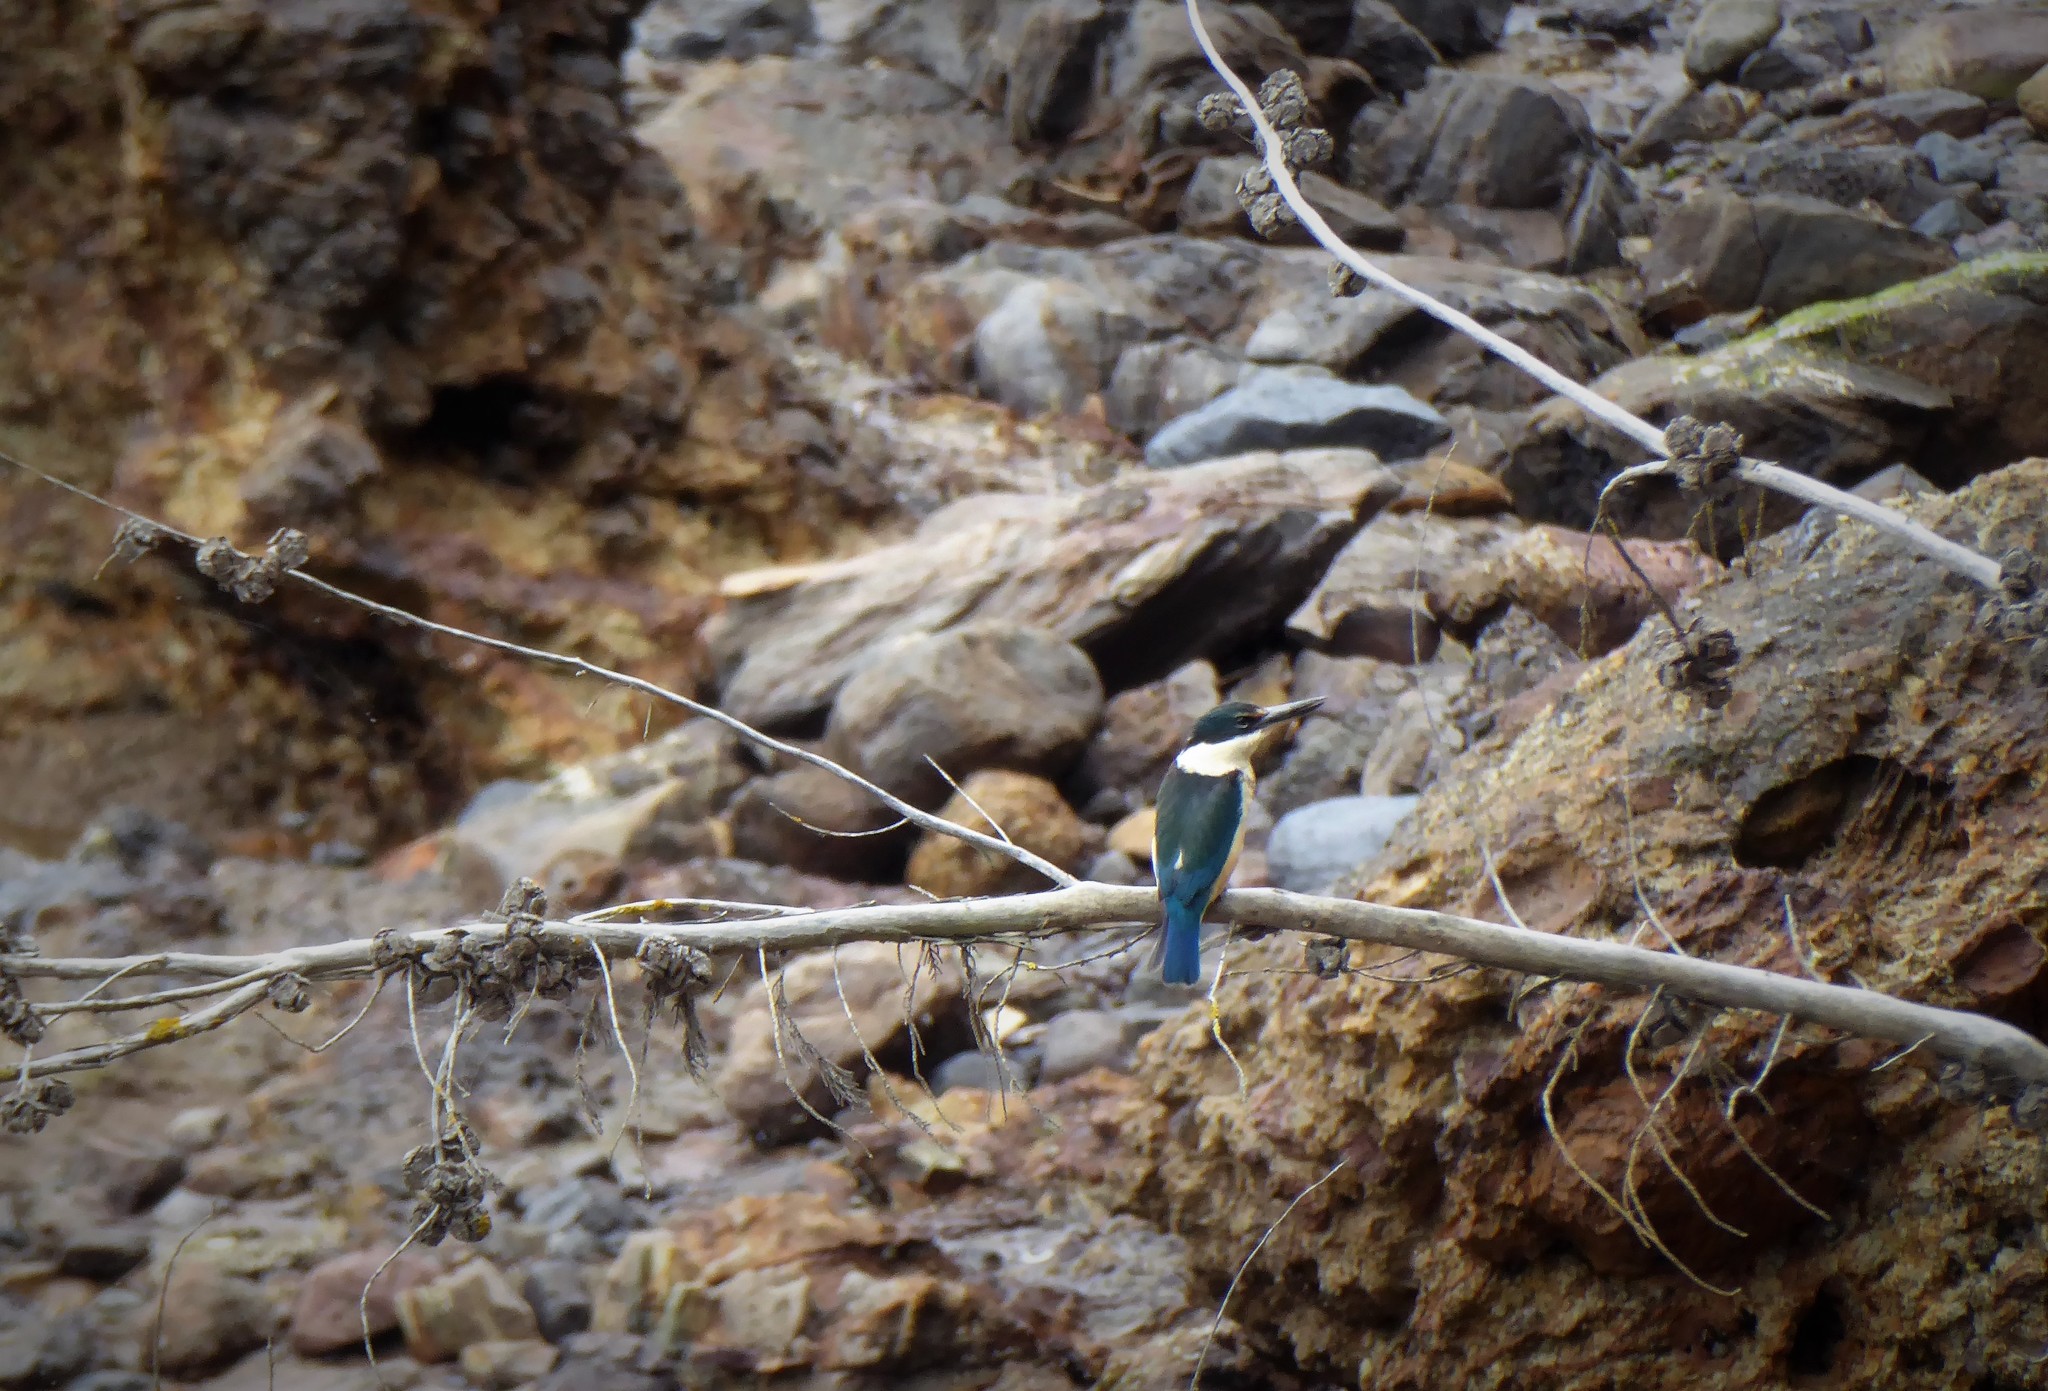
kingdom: Animalia
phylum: Chordata
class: Aves
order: Coraciiformes
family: Alcedinidae
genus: Todiramphus
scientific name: Todiramphus sanctus
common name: Sacred kingfisher
